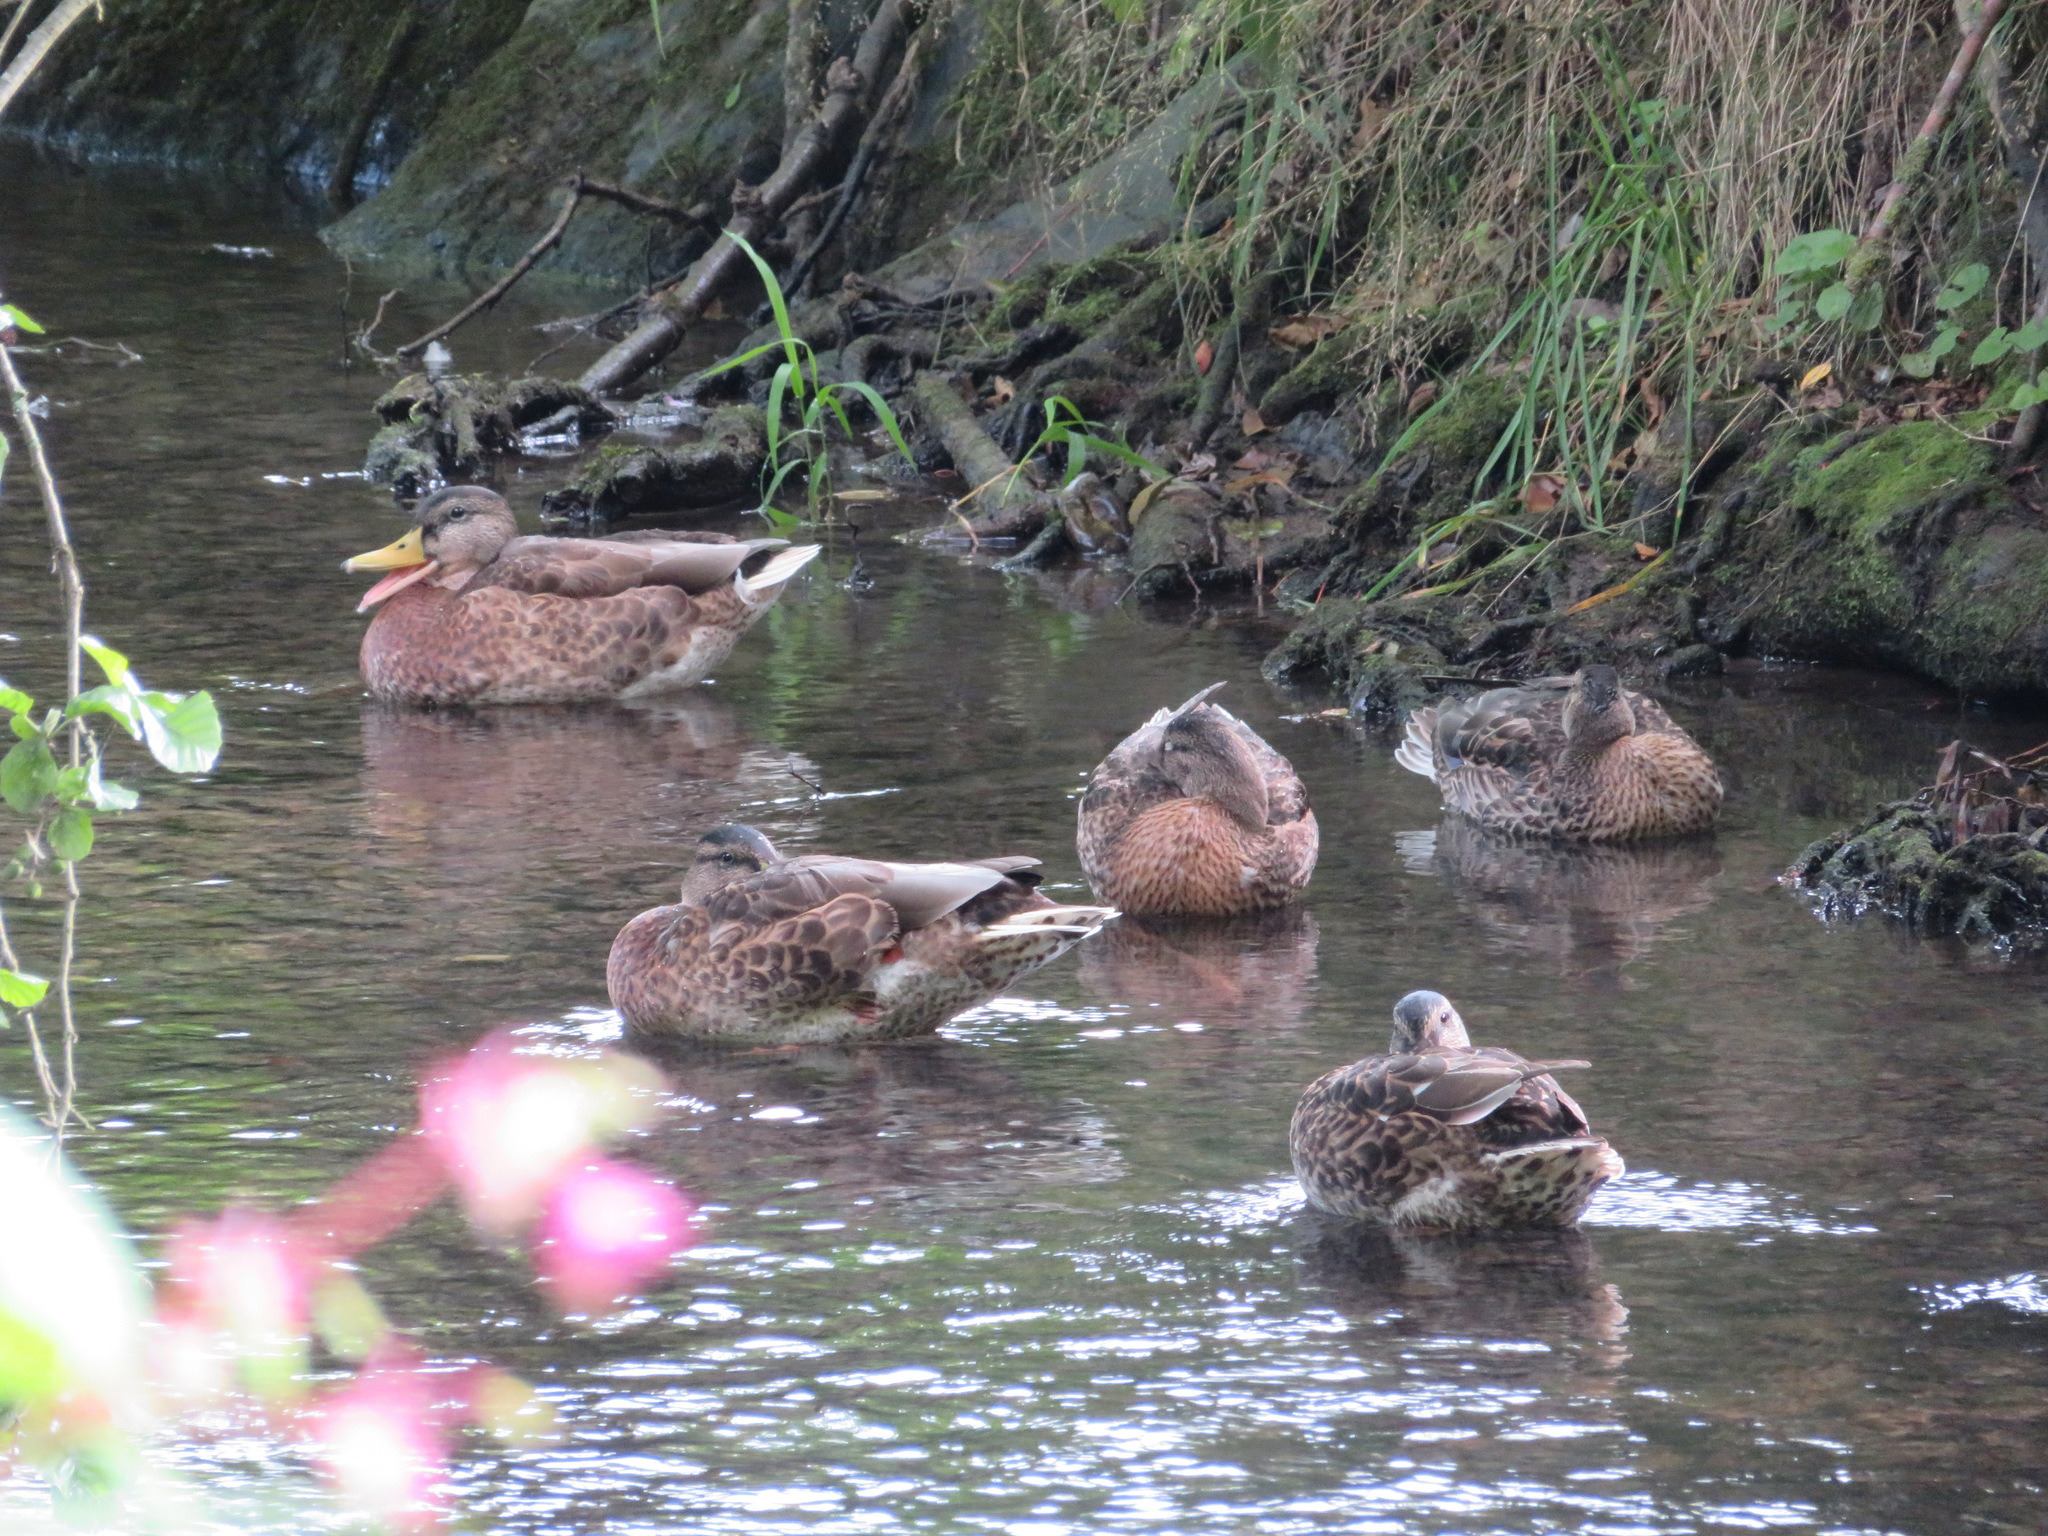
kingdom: Animalia
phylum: Chordata
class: Aves
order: Anseriformes
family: Anatidae
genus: Anas
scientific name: Anas platyrhynchos
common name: Mallard
